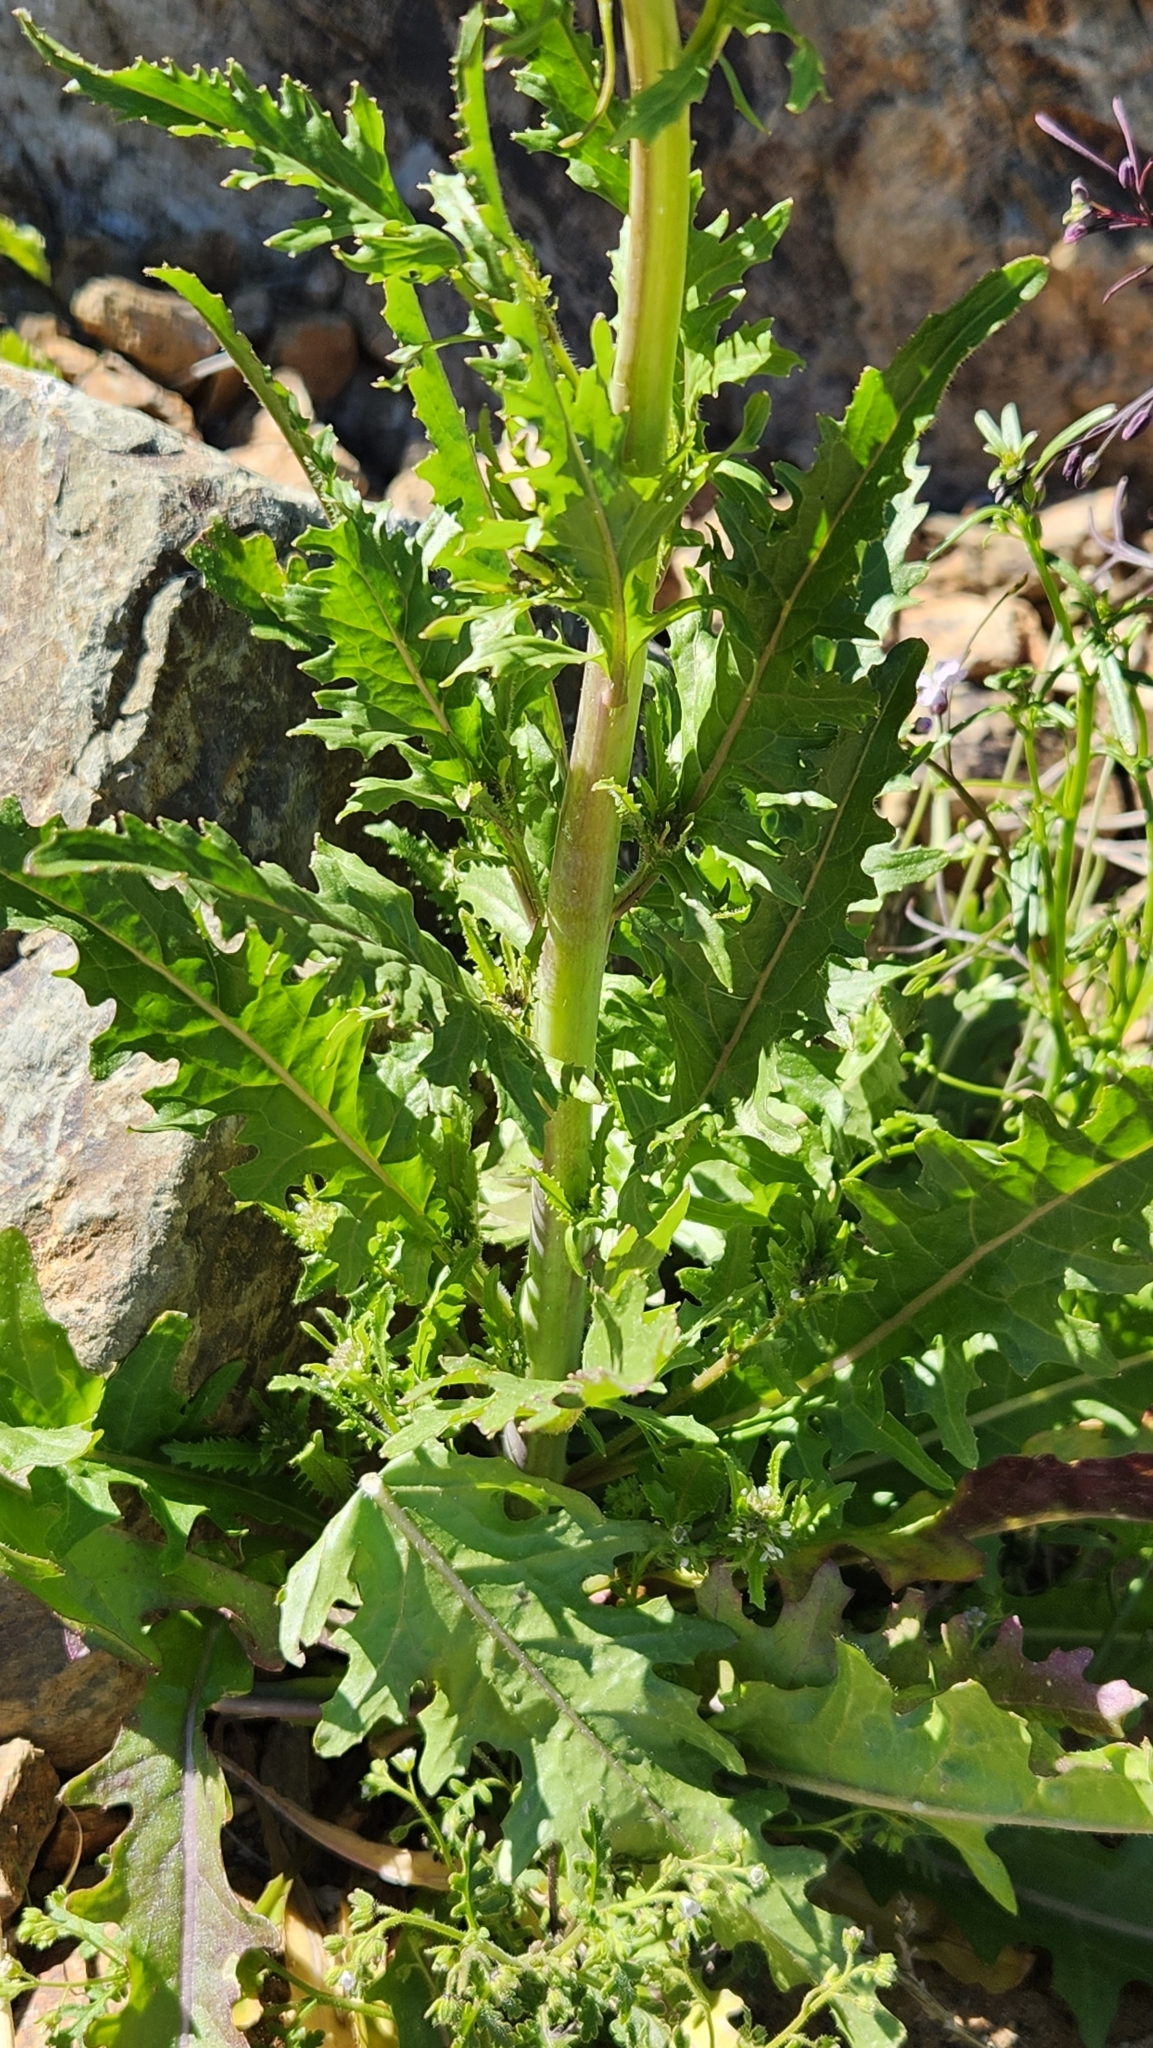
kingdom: Plantae
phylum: Tracheophyta
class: Magnoliopsida
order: Brassicales
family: Brassicaceae
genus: Streptanthus
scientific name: Streptanthus lasiophyllus
